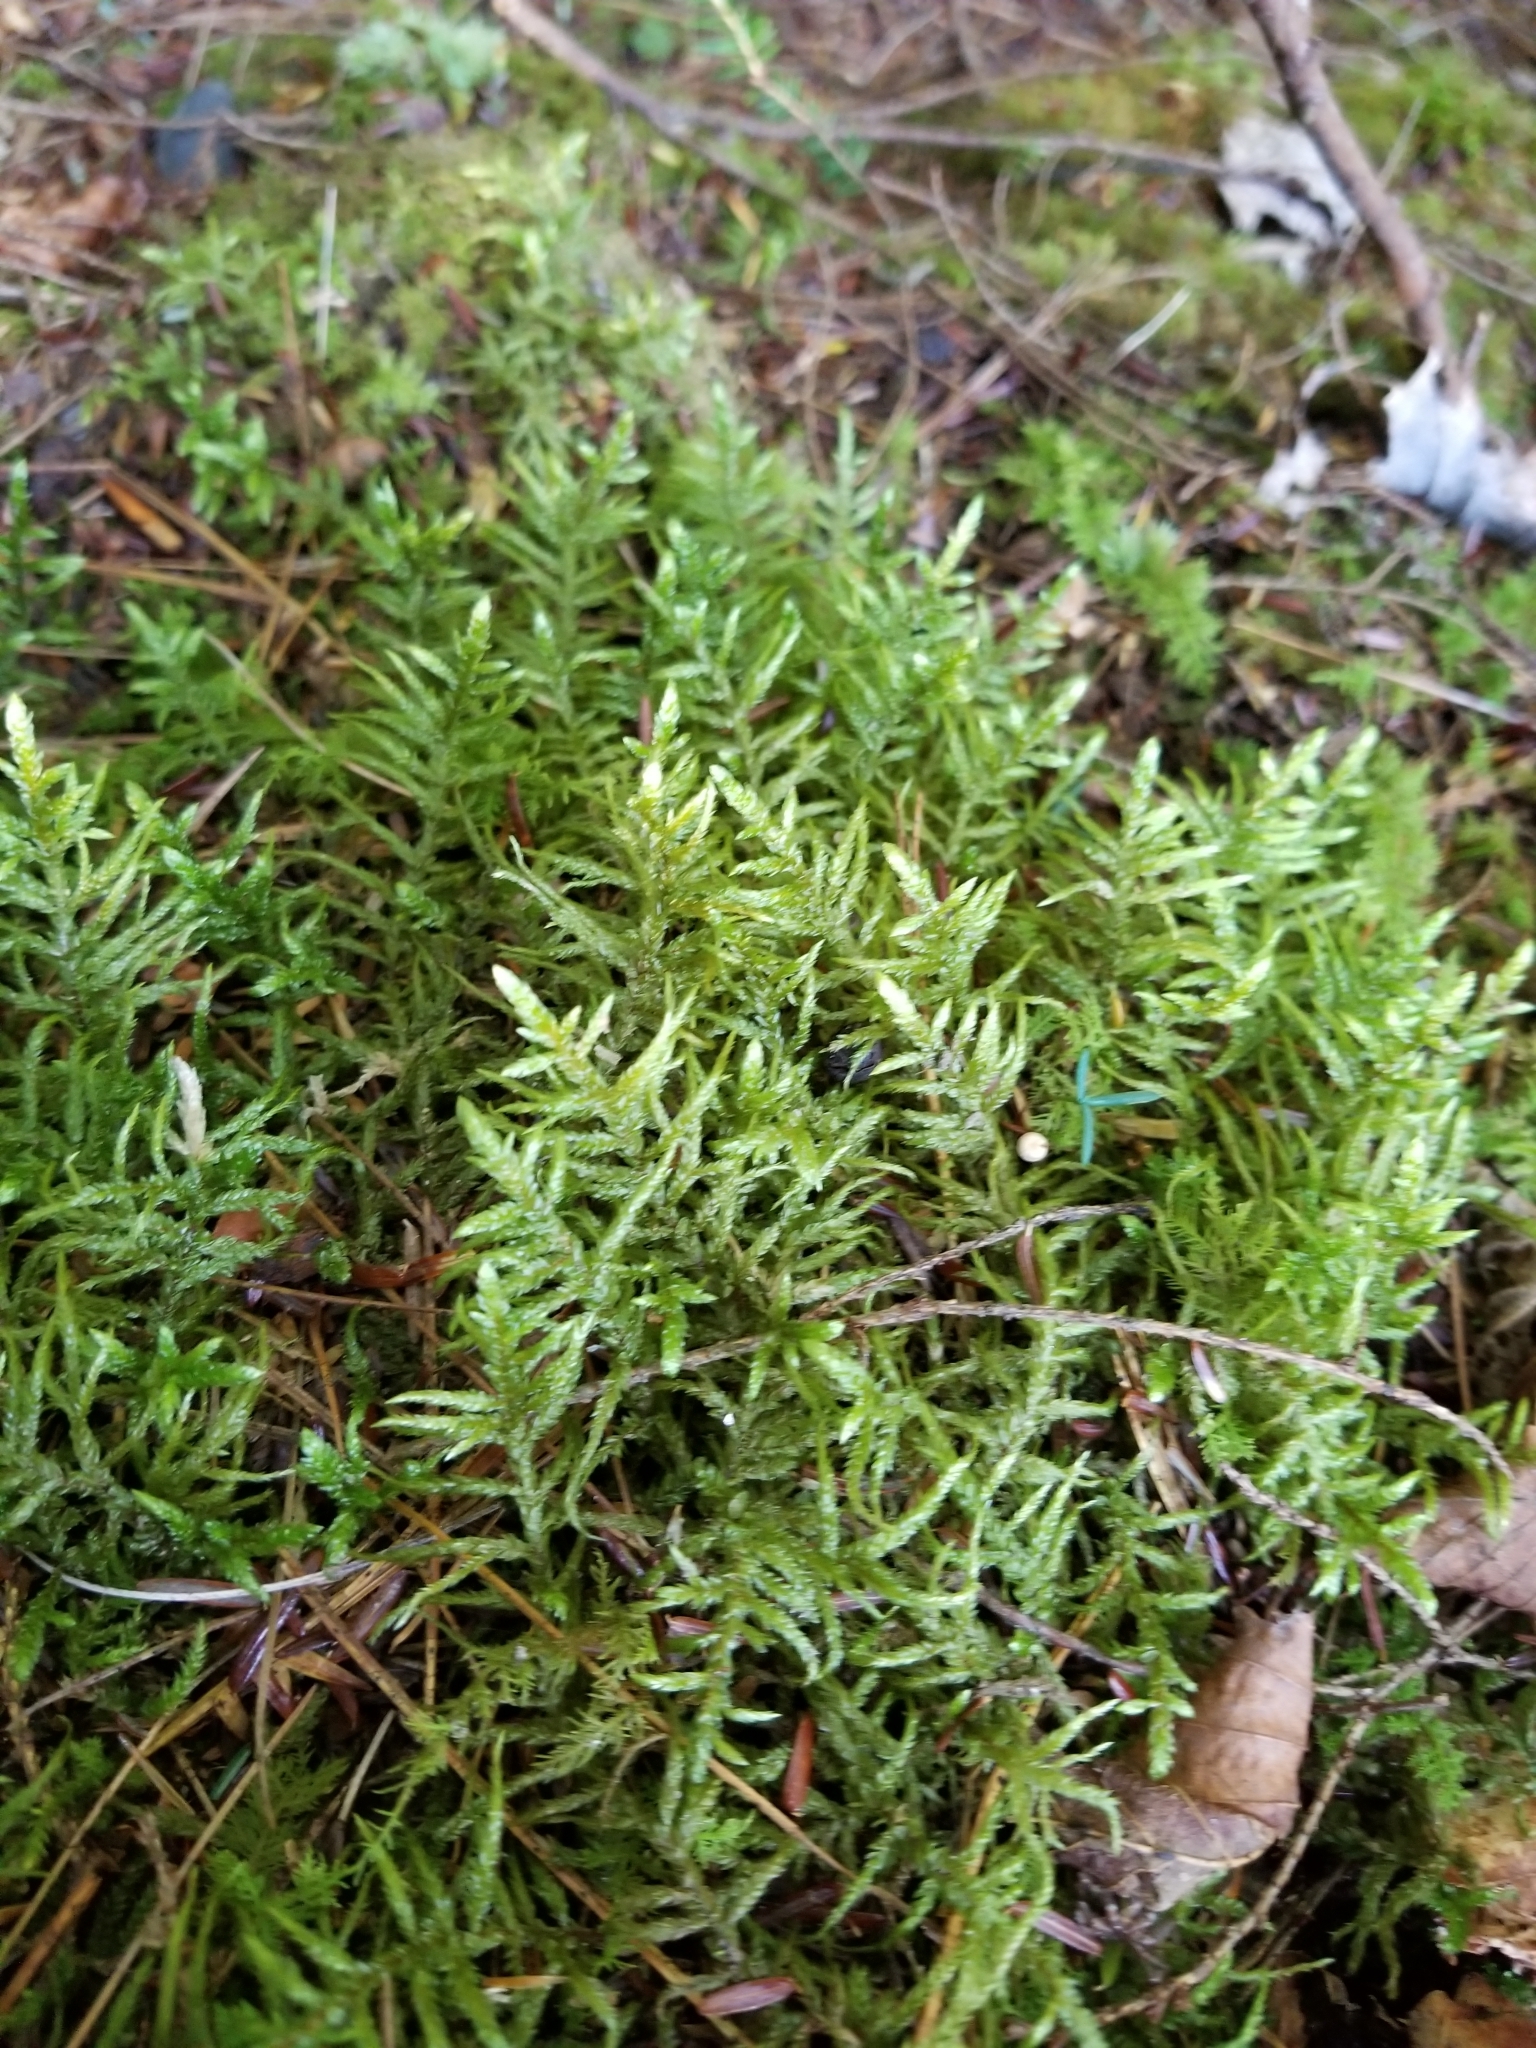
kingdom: Plantae
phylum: Bryophyta
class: Bryopsida
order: Hypnales
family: Hylocomiaceae
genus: Pleurozium
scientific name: Pleurozium schreberi
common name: Red-stemmed feather moss
